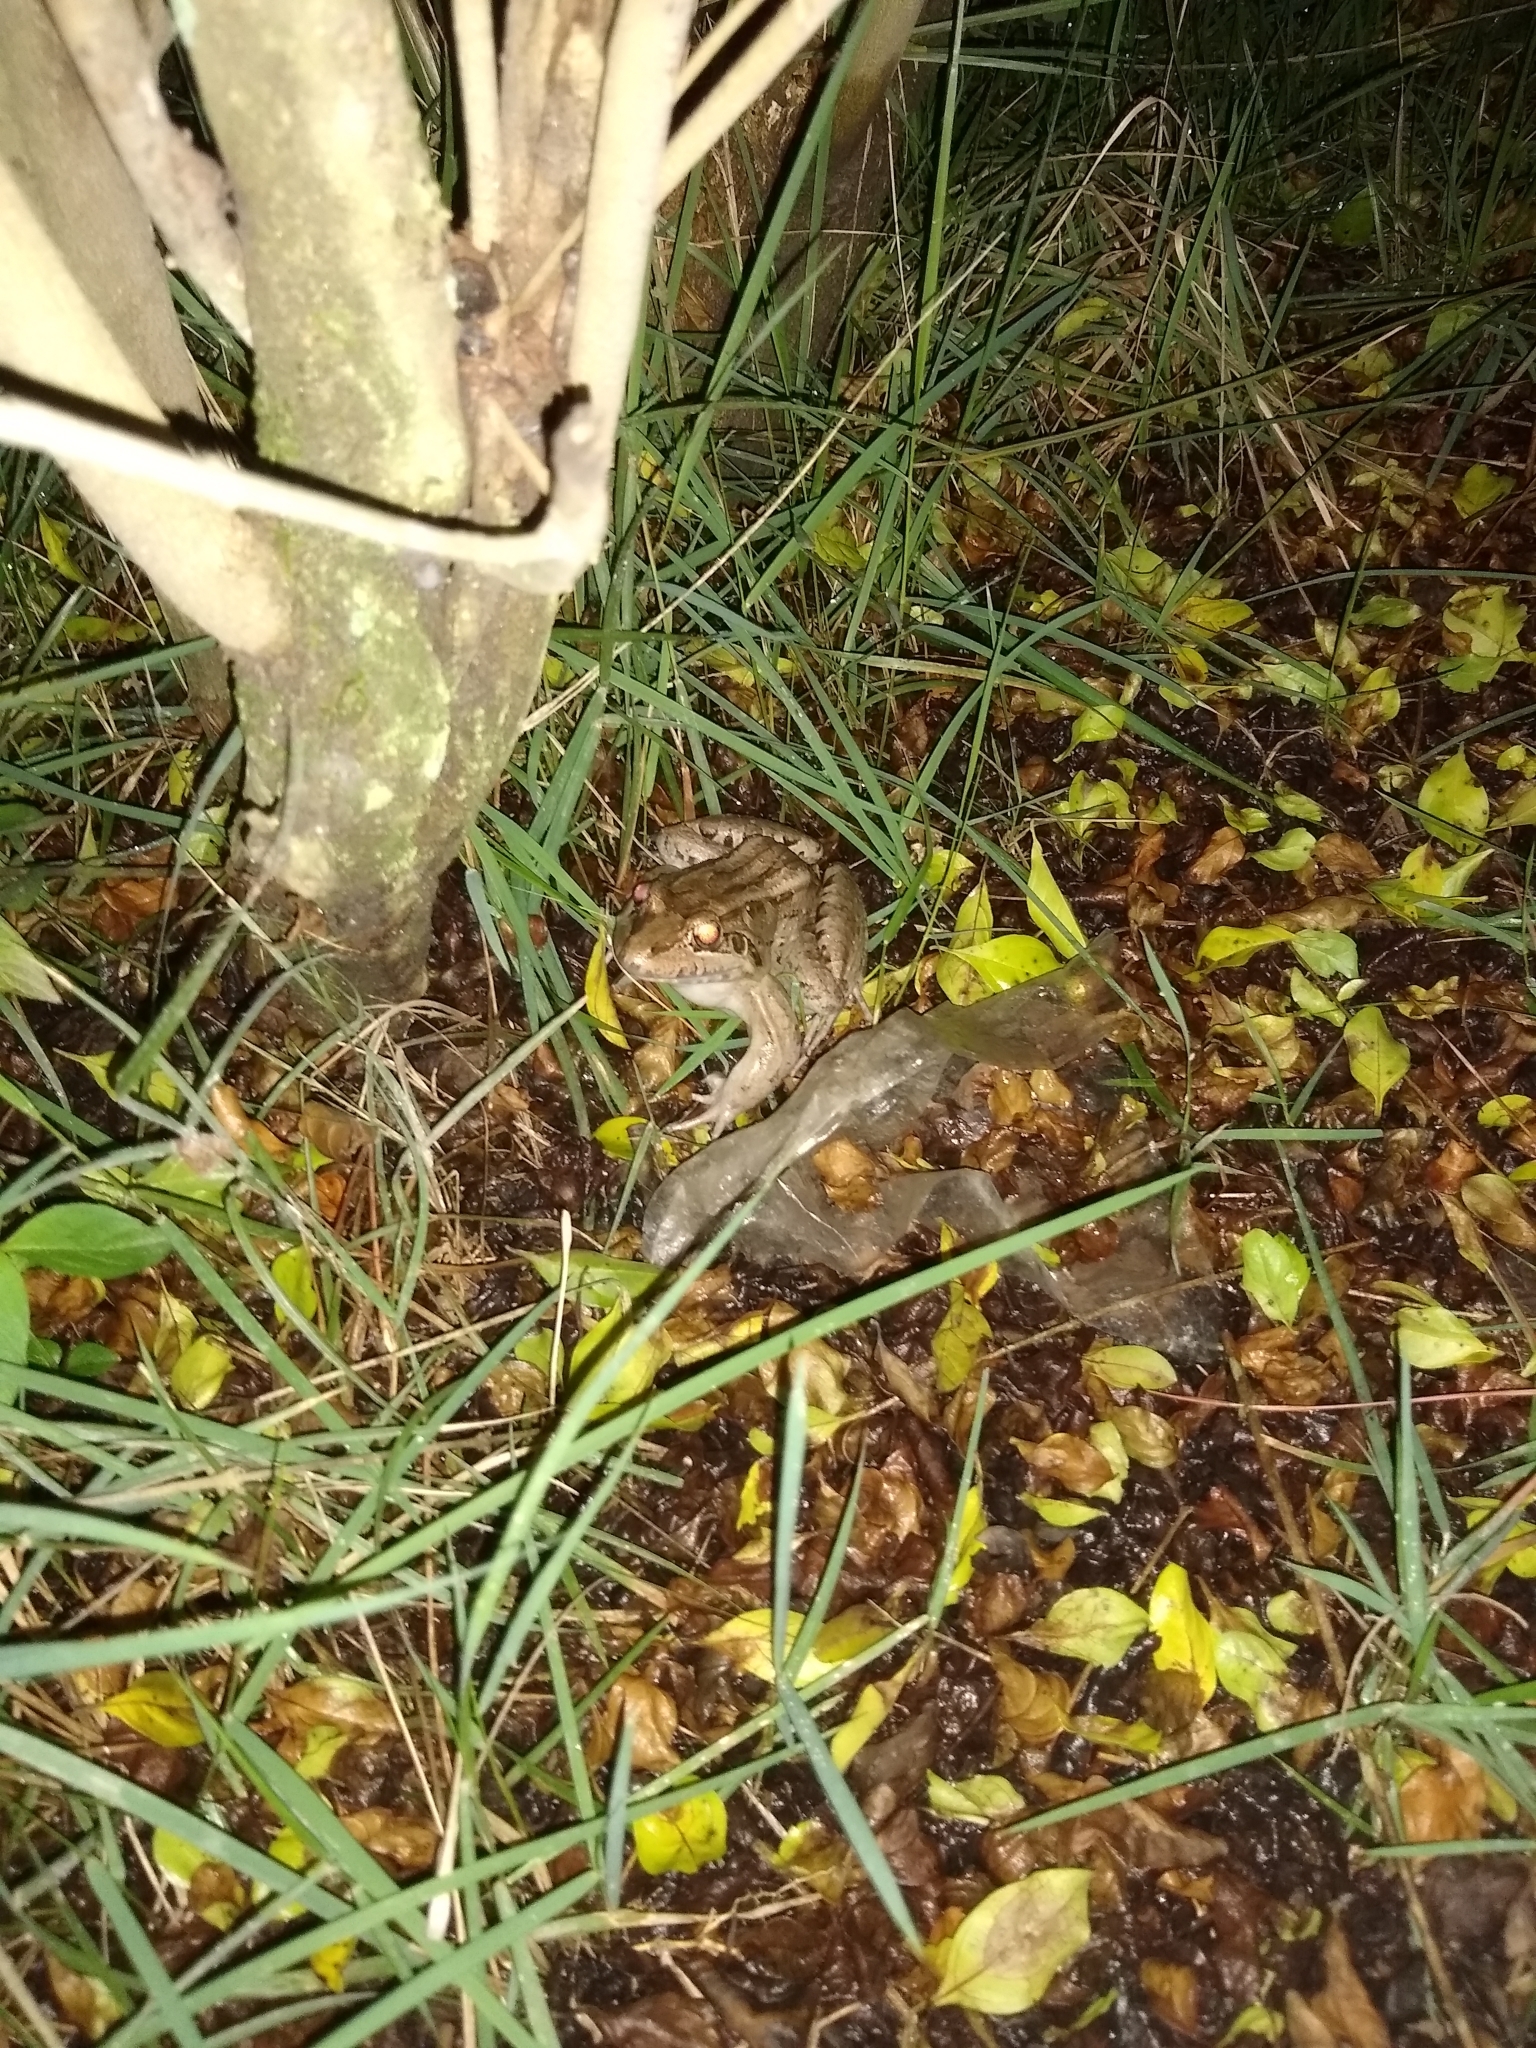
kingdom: Animalia
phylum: Chordata
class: Amphibia
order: Anura
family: Leptodactylidae
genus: Leptodactylus
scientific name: Leptodactylus latrans
